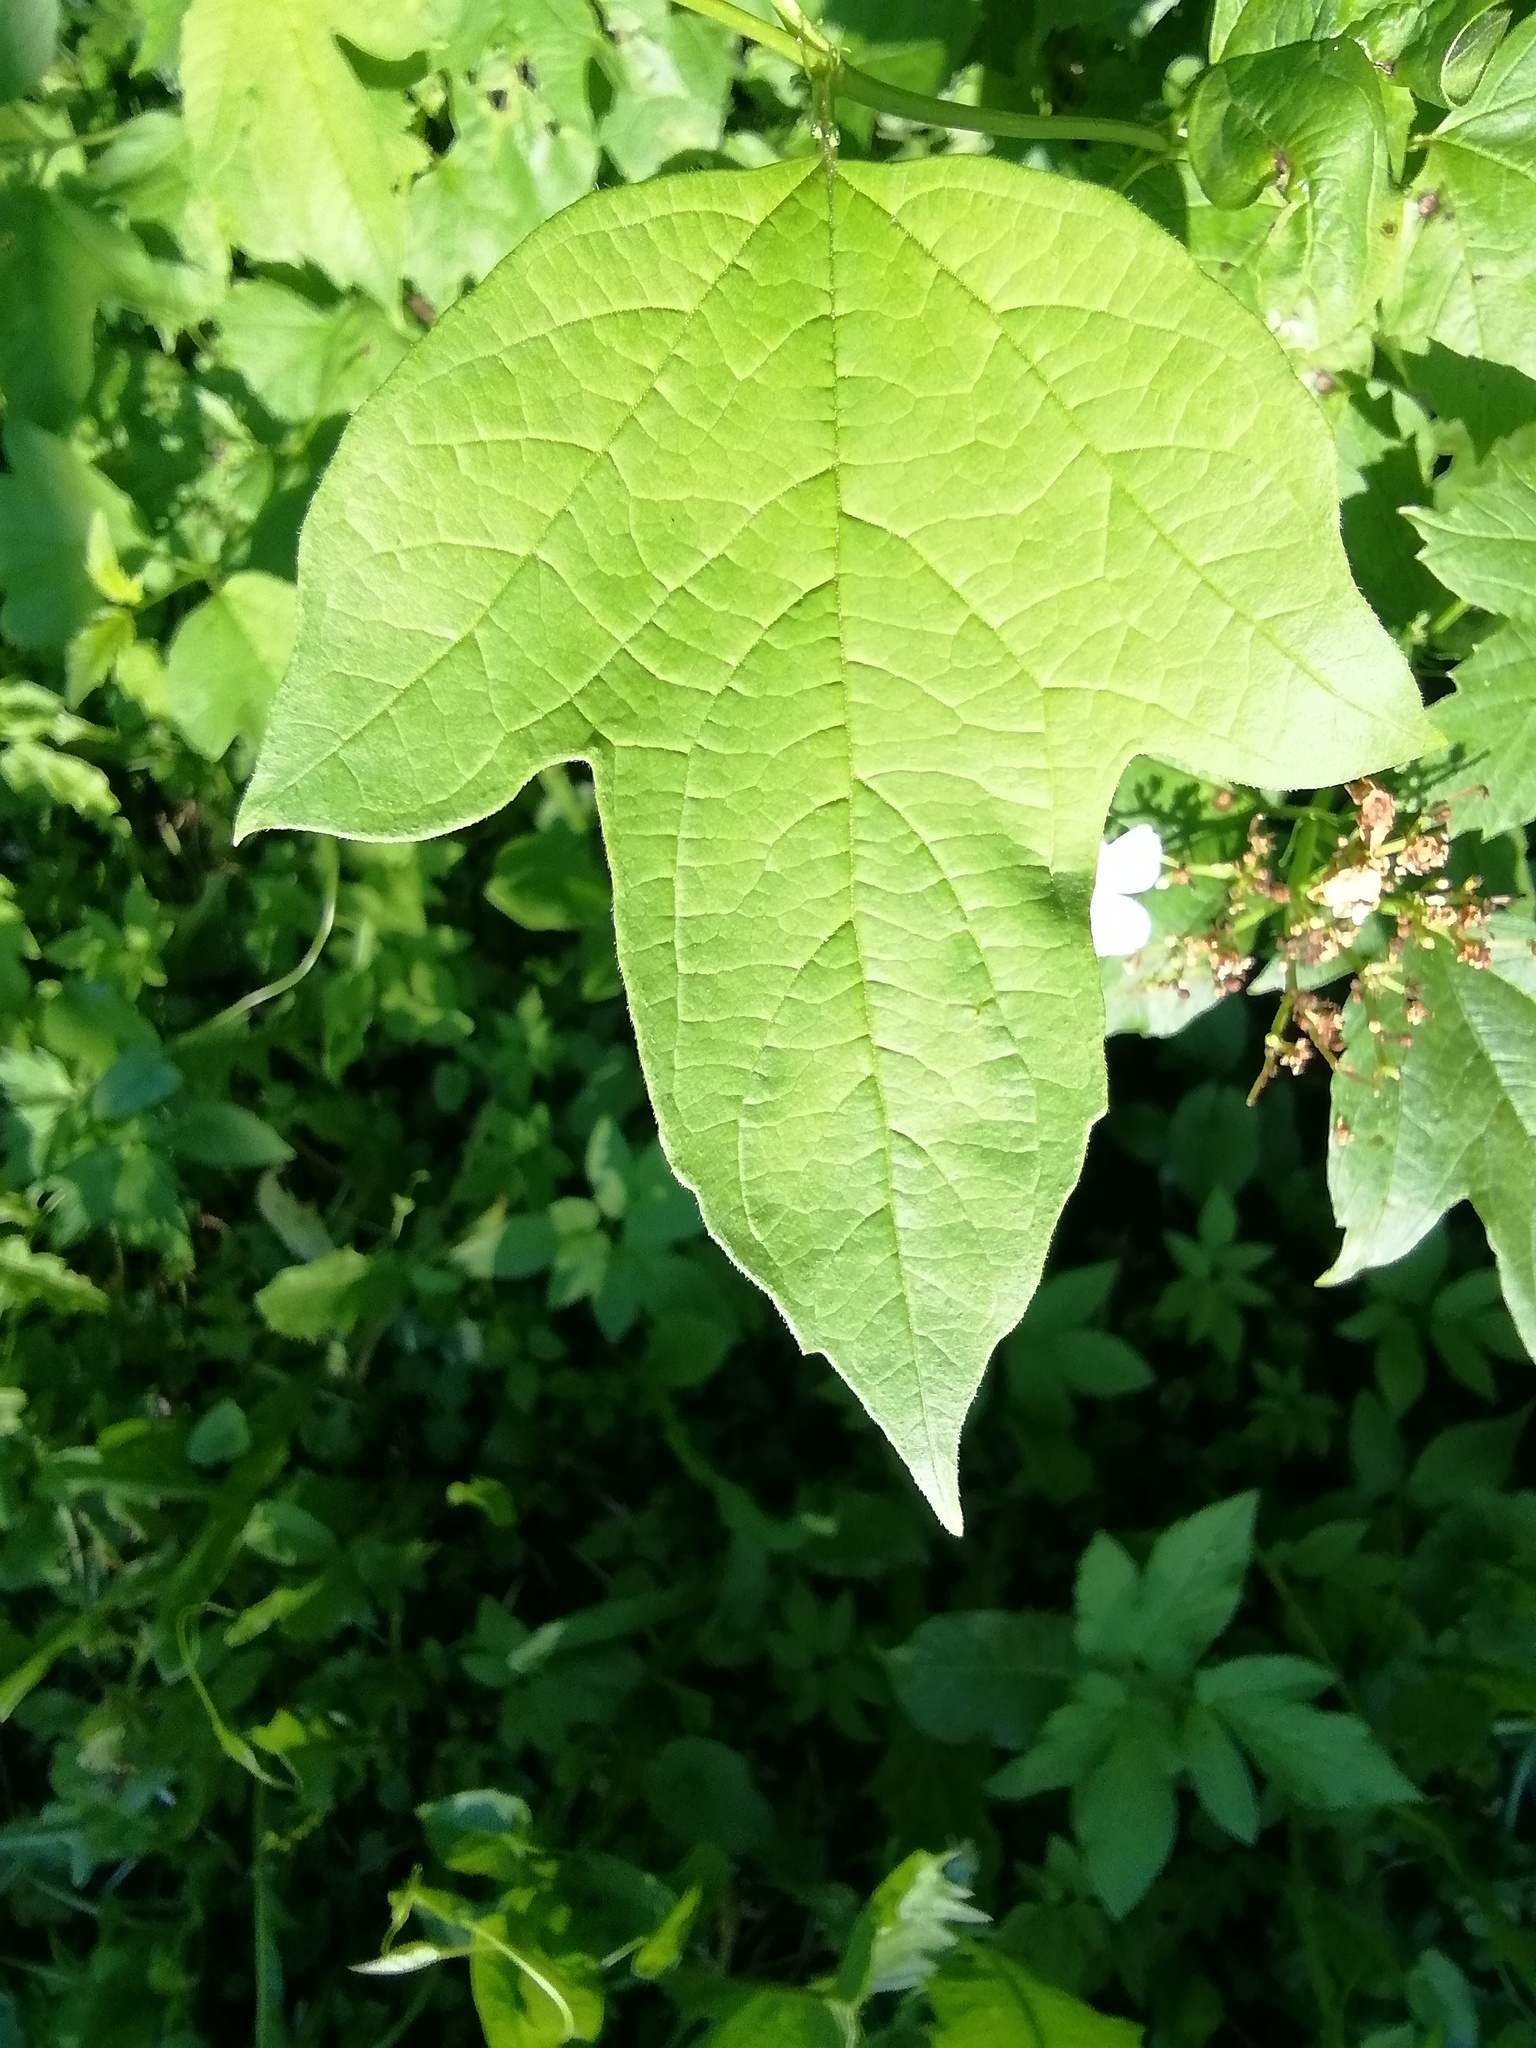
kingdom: Plantae
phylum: Tracheophyta
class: Magnoliopsida
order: Dipsacales
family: Viburnaceae
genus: Viburnum
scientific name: Viburnum opulus
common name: Guelder-rose
